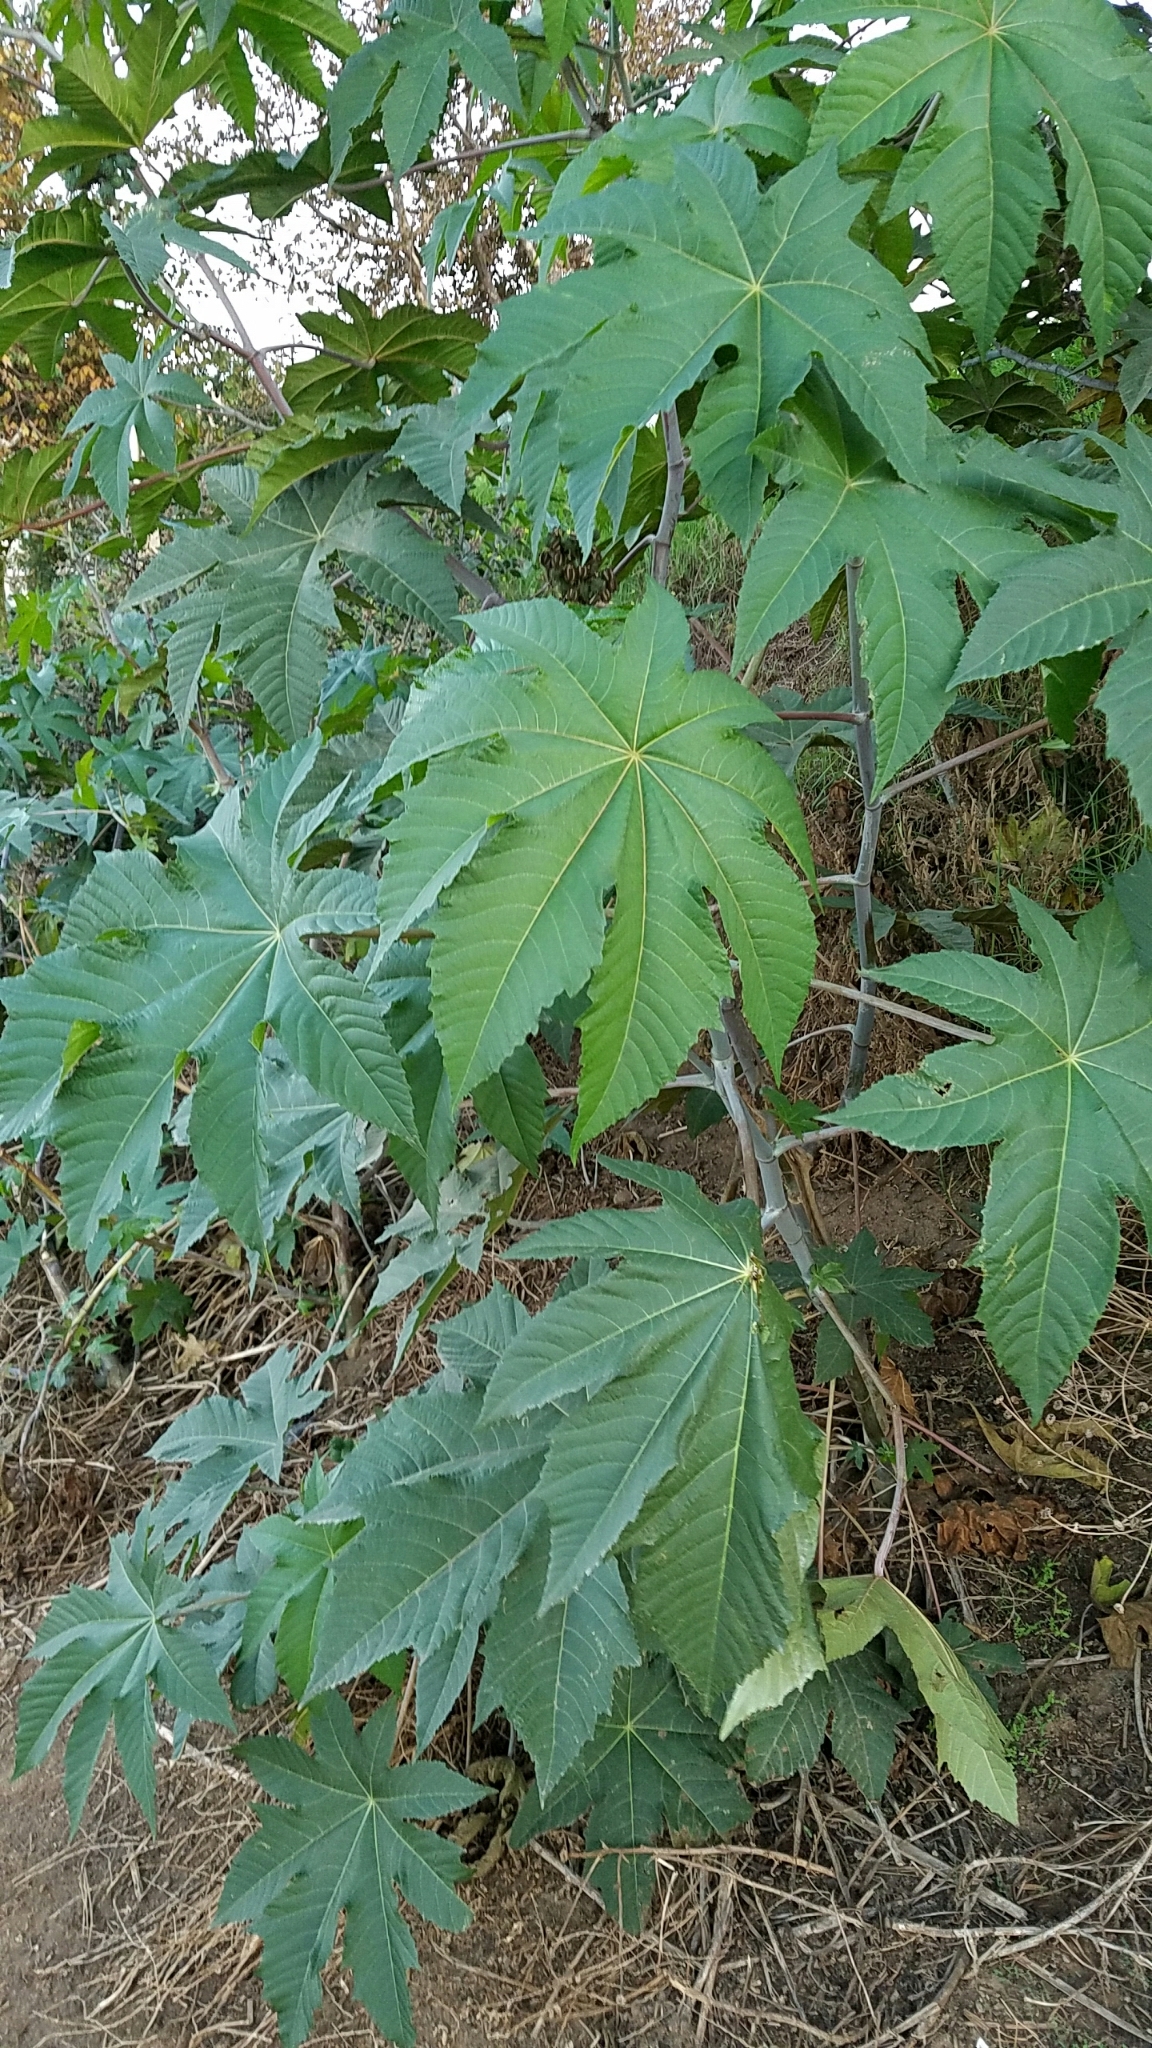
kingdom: Plantae
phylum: Tracheophyta
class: Magnoliopsida
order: Malpighiales
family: Euphorbiaceae
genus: Ricinus
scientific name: Ricinus communis
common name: Castor-oil-plant
